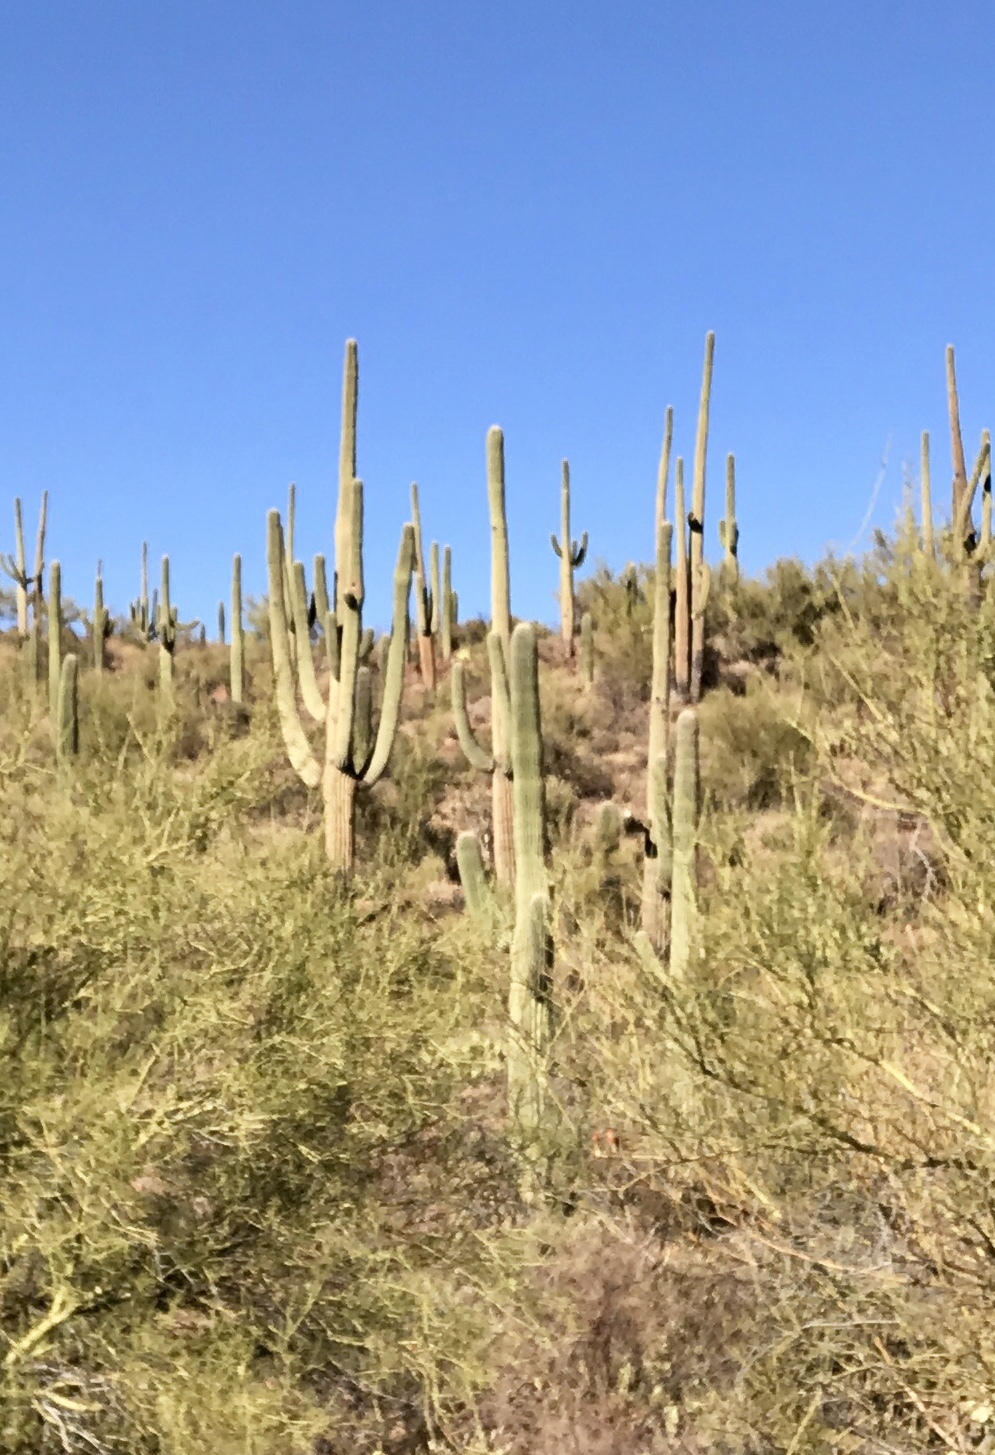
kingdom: Plantae
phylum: Tracheophyta
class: Magnoliopsida
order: Caryophyllales
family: Cactaceae
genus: Carnegiea
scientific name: Carnegiea gigantea
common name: Saguaro
